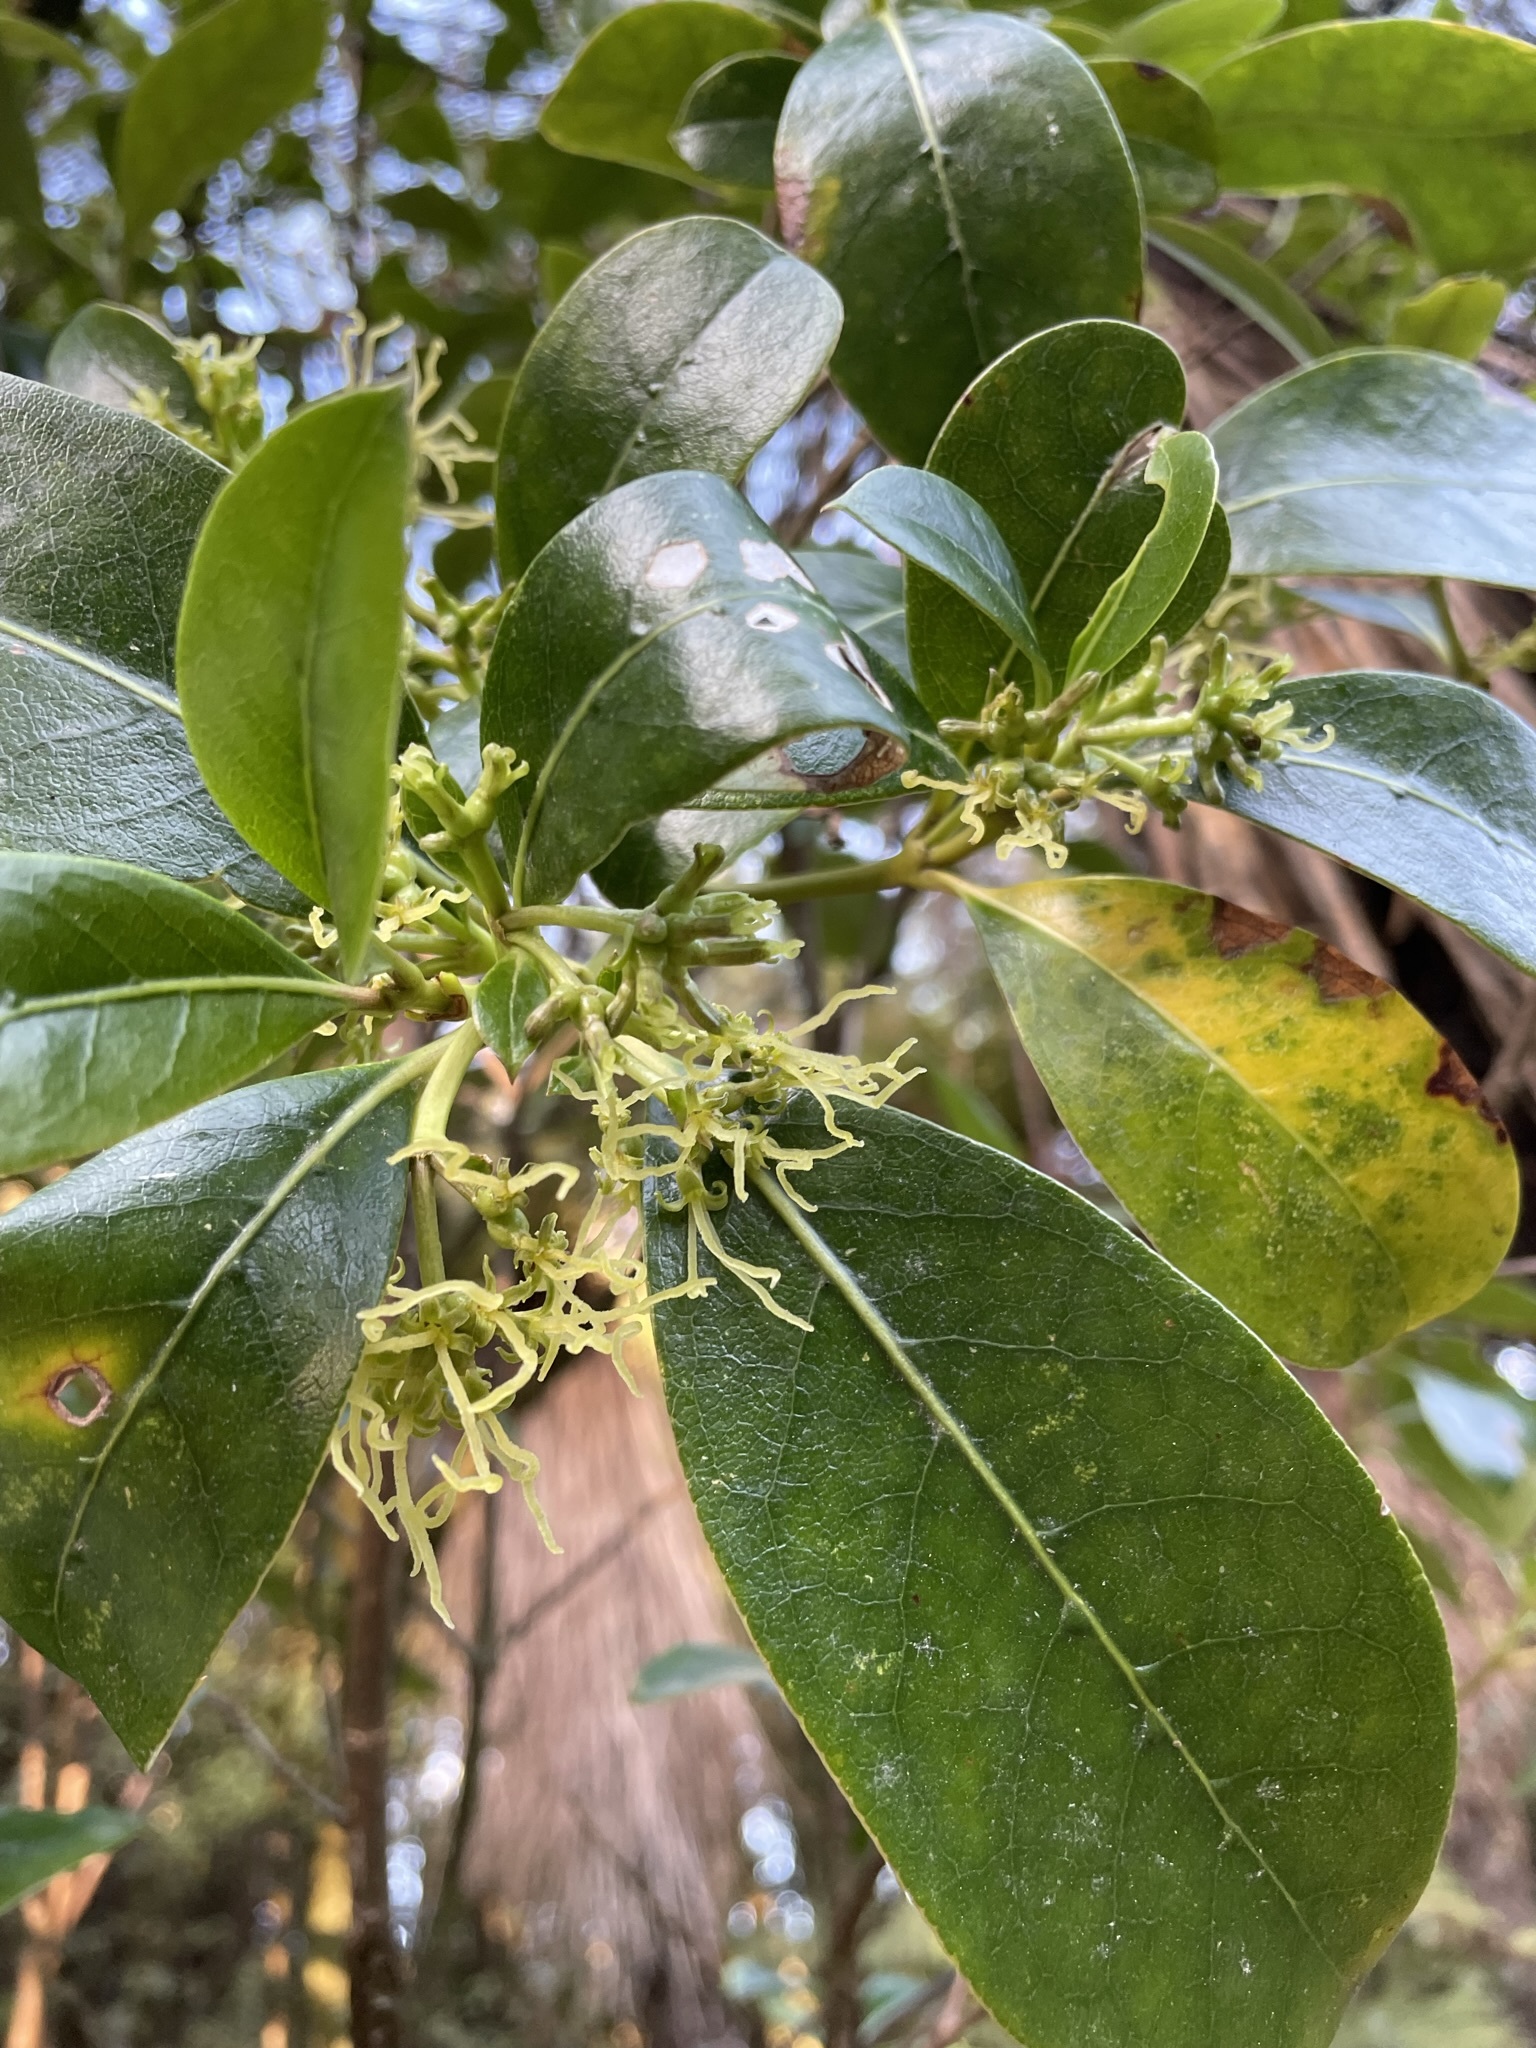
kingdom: Plantae
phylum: Tracheophyta
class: Magnoliopsida
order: Gentianales
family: Rubiaceae
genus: Coprosma
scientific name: Coprosma lucida
